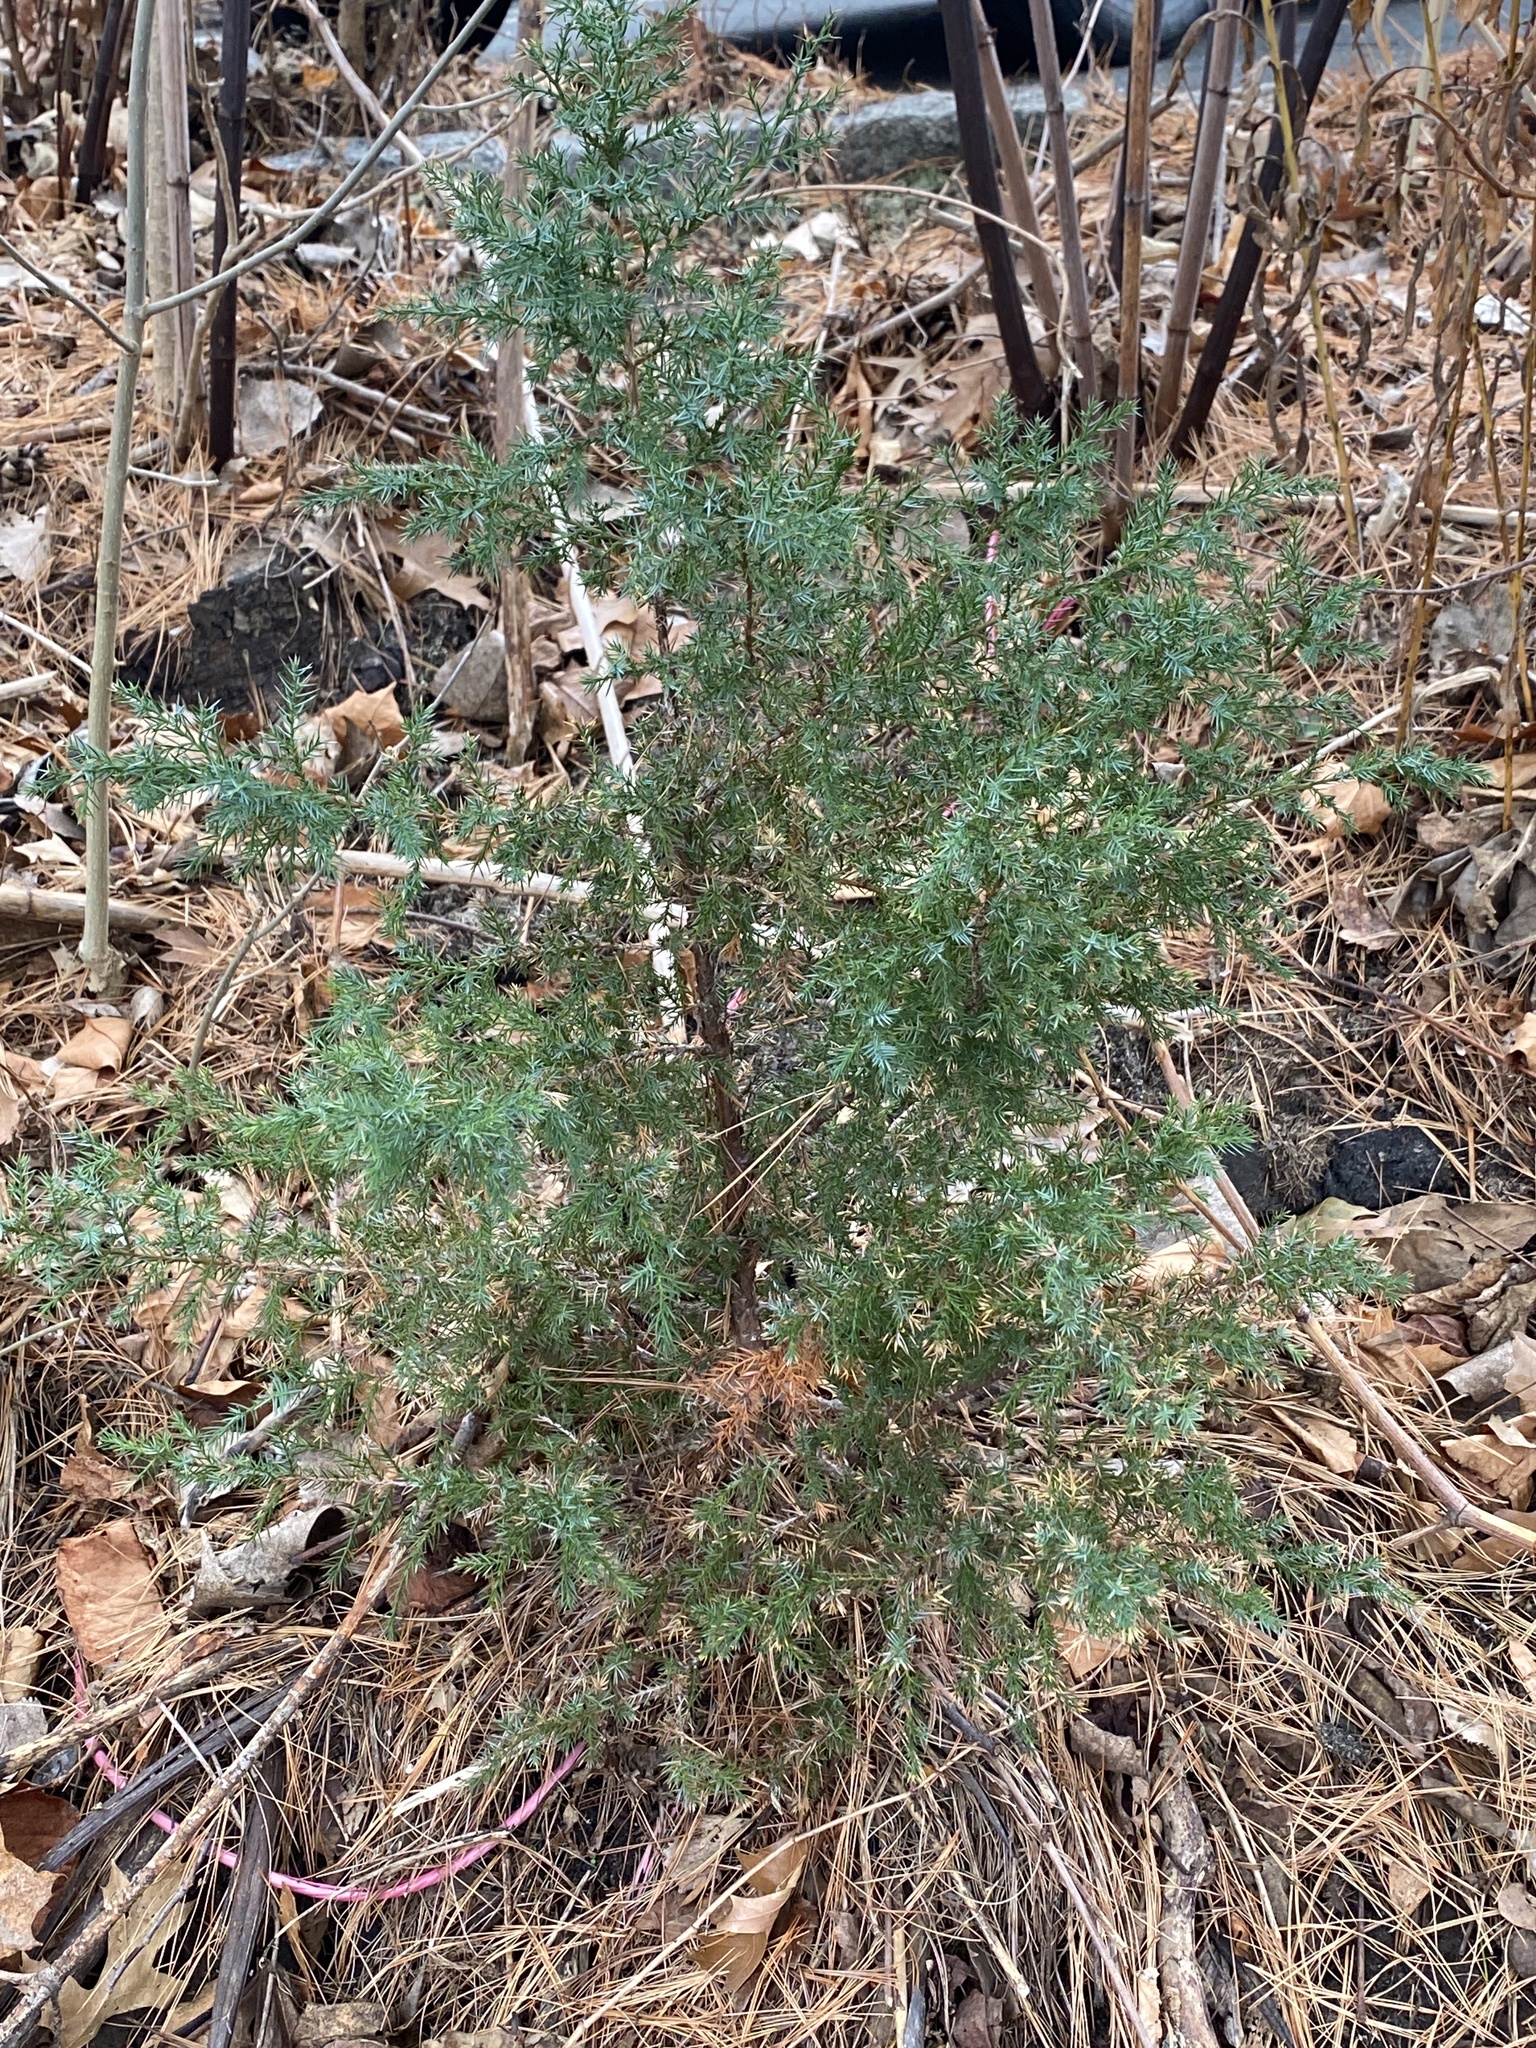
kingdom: Plantae
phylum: Tracheophyta
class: Pinopsida
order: Pinales
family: Cupressaceae
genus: Juniperus
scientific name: Juniperus virginiana
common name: Red juniper
